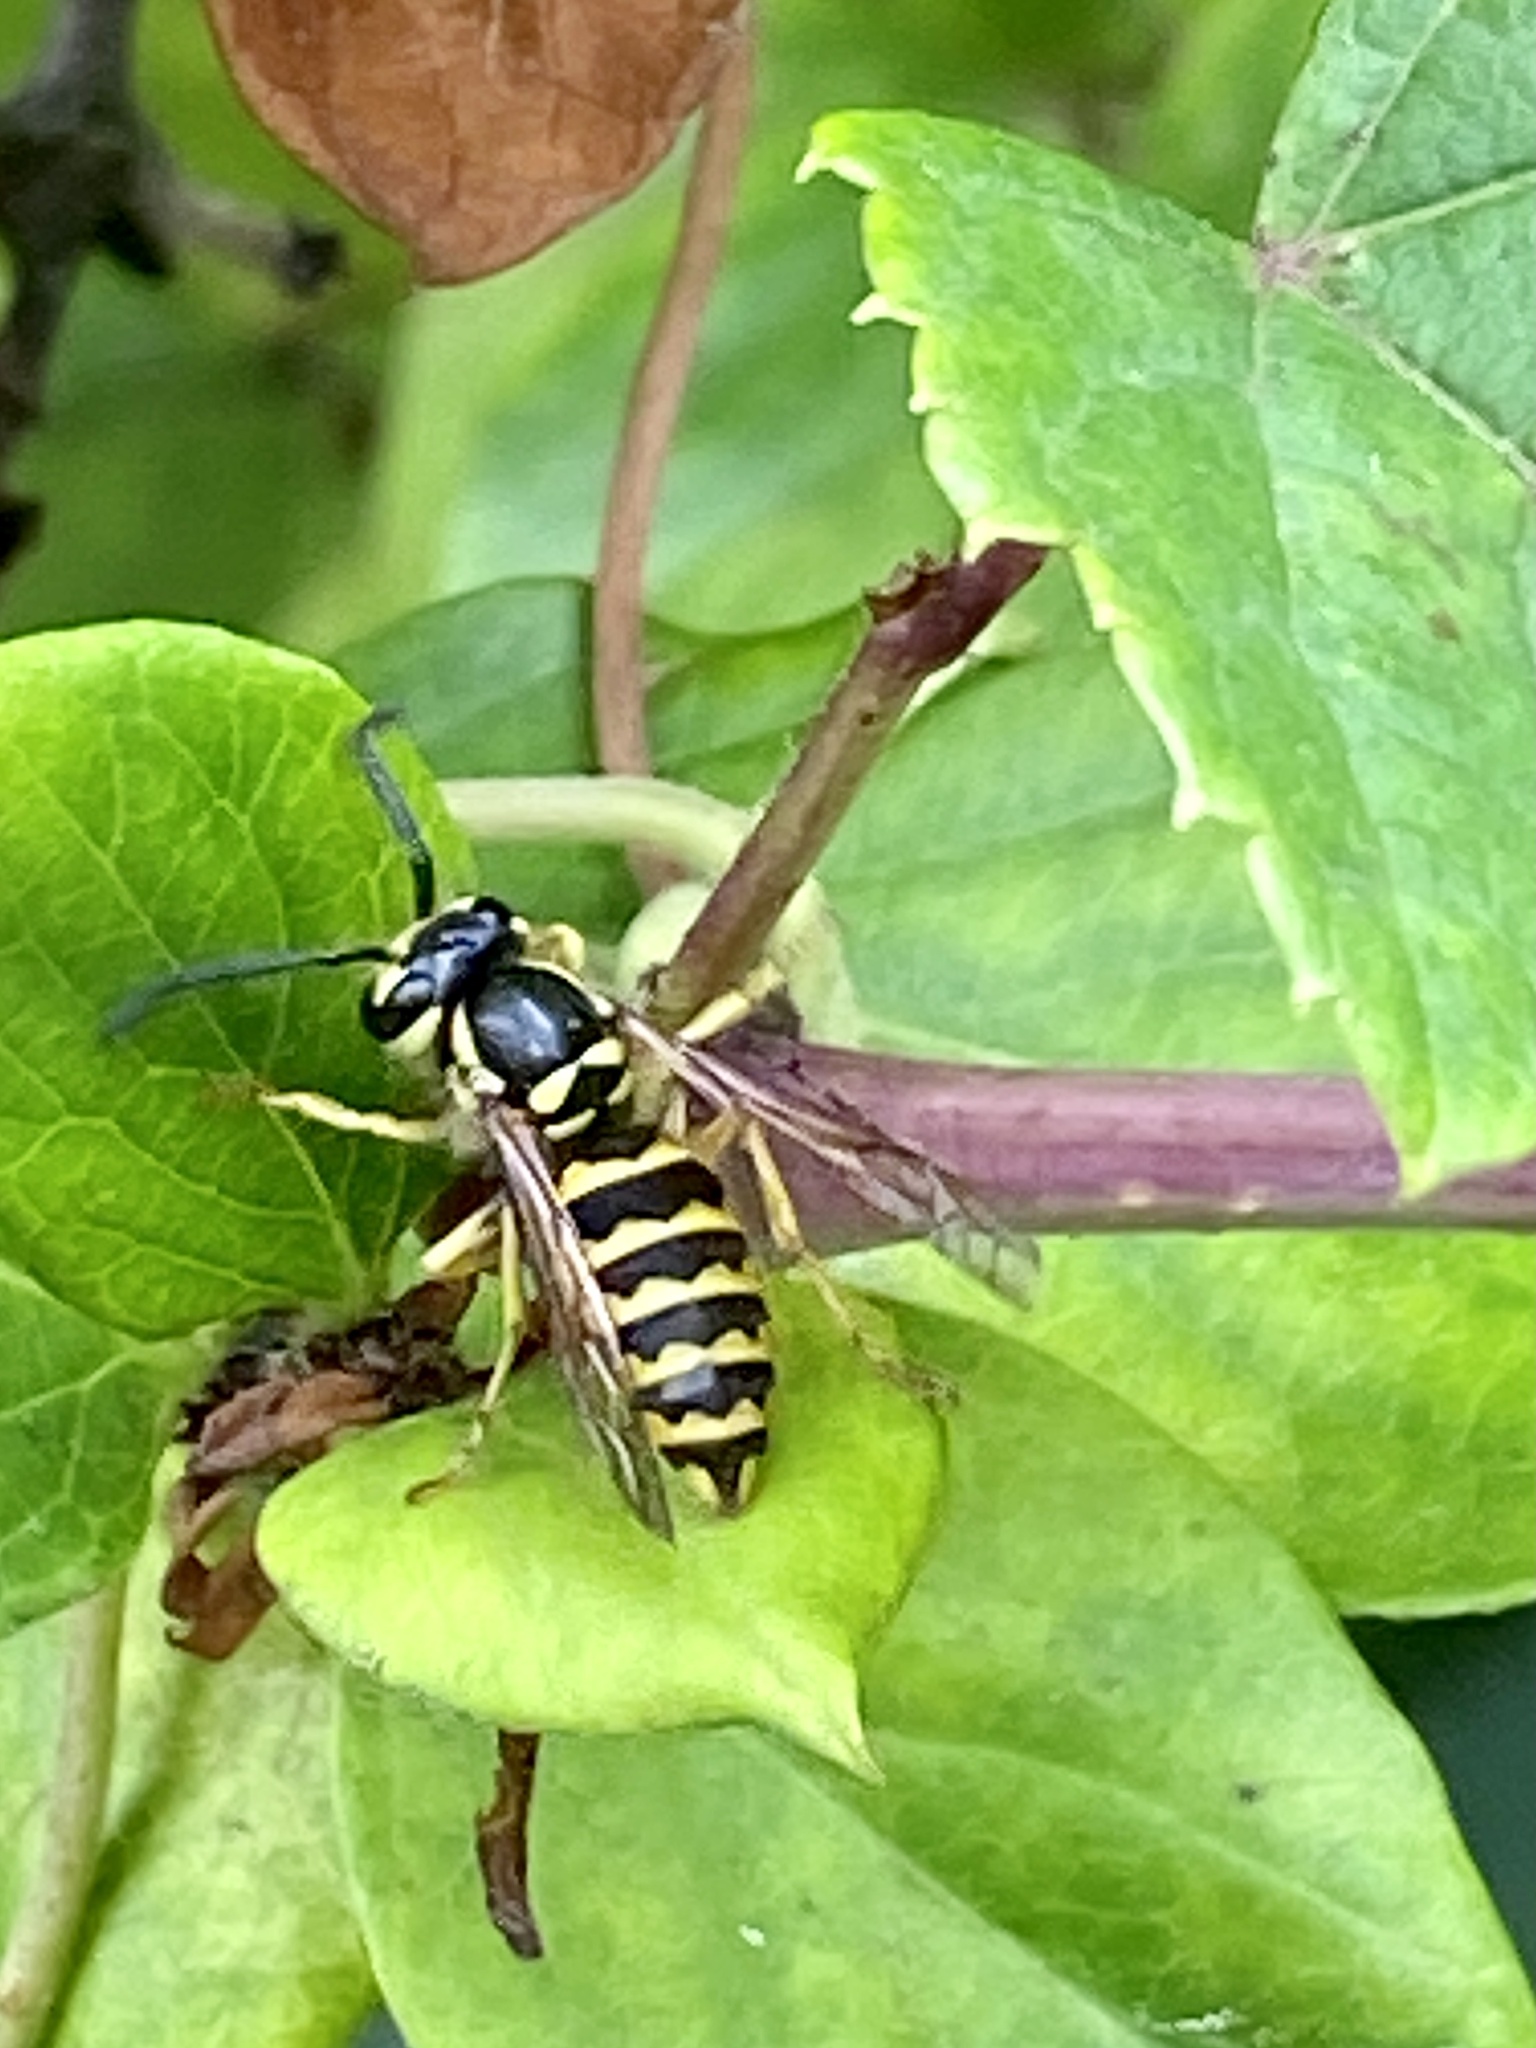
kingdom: Animalia
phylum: Arthropoda
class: Insecta
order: Hymenoptera
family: Vespidae
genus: Vespula
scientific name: Vespula flavopilosa
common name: Downy yellowjacket
